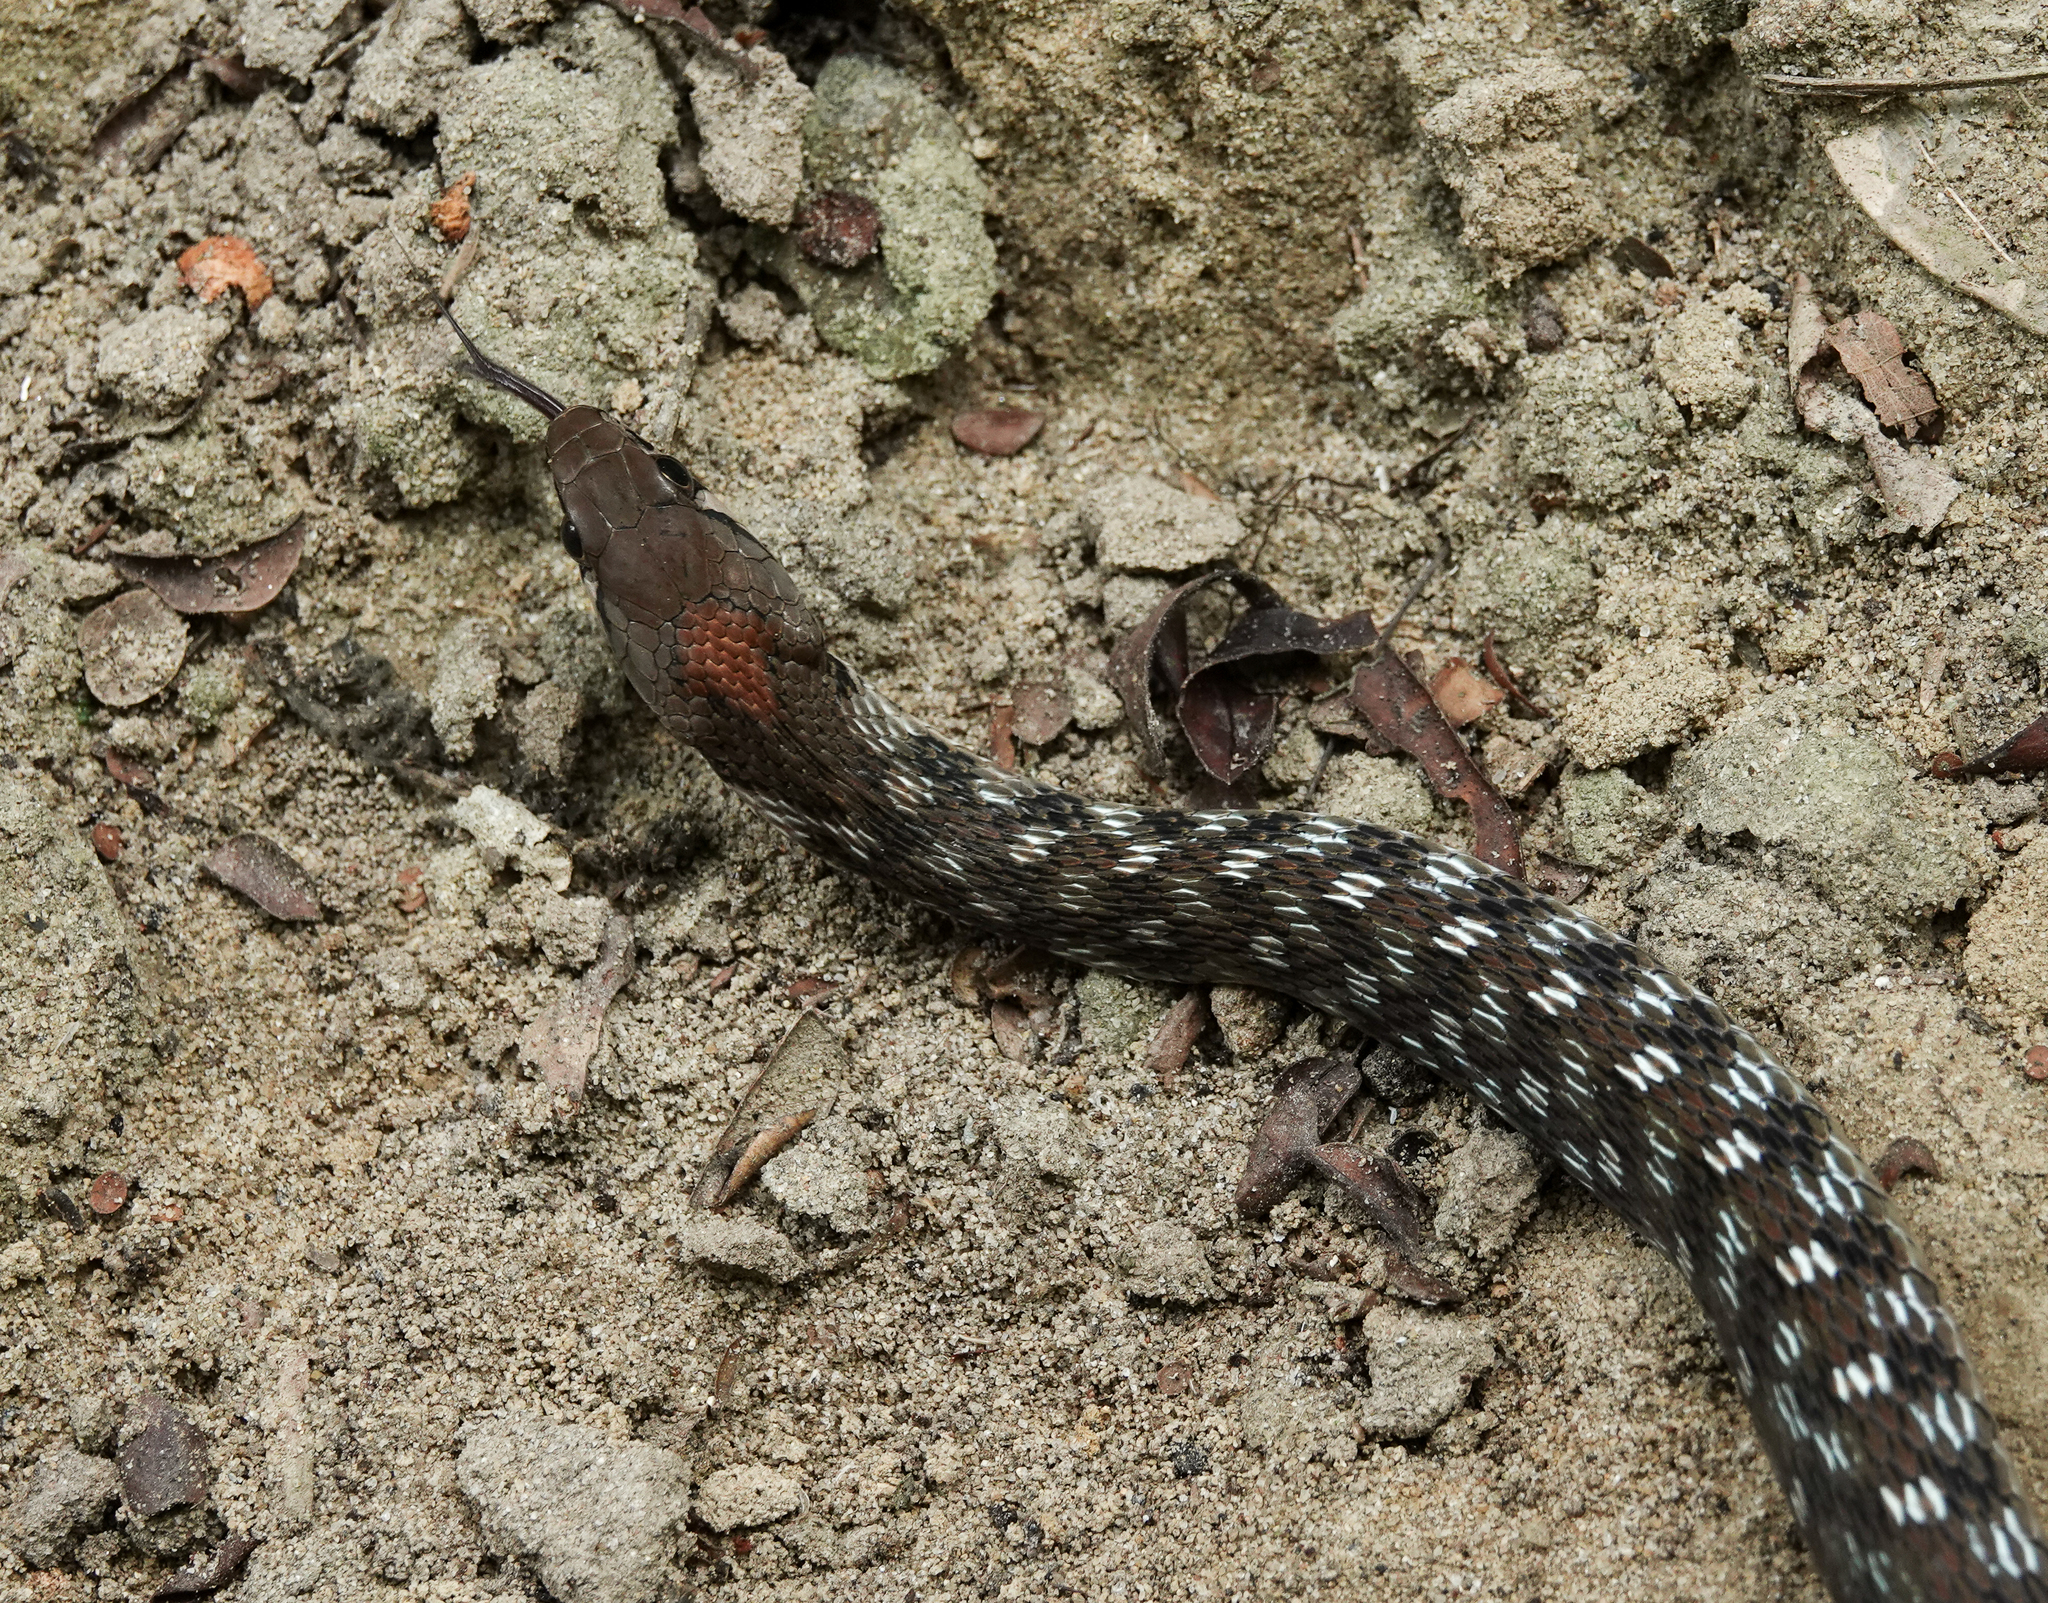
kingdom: Animalia
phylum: Chordata
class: Squamata
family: Colubridae
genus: Rhabdophis
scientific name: Rhabdophis bindi
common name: Bindee keelback snake
